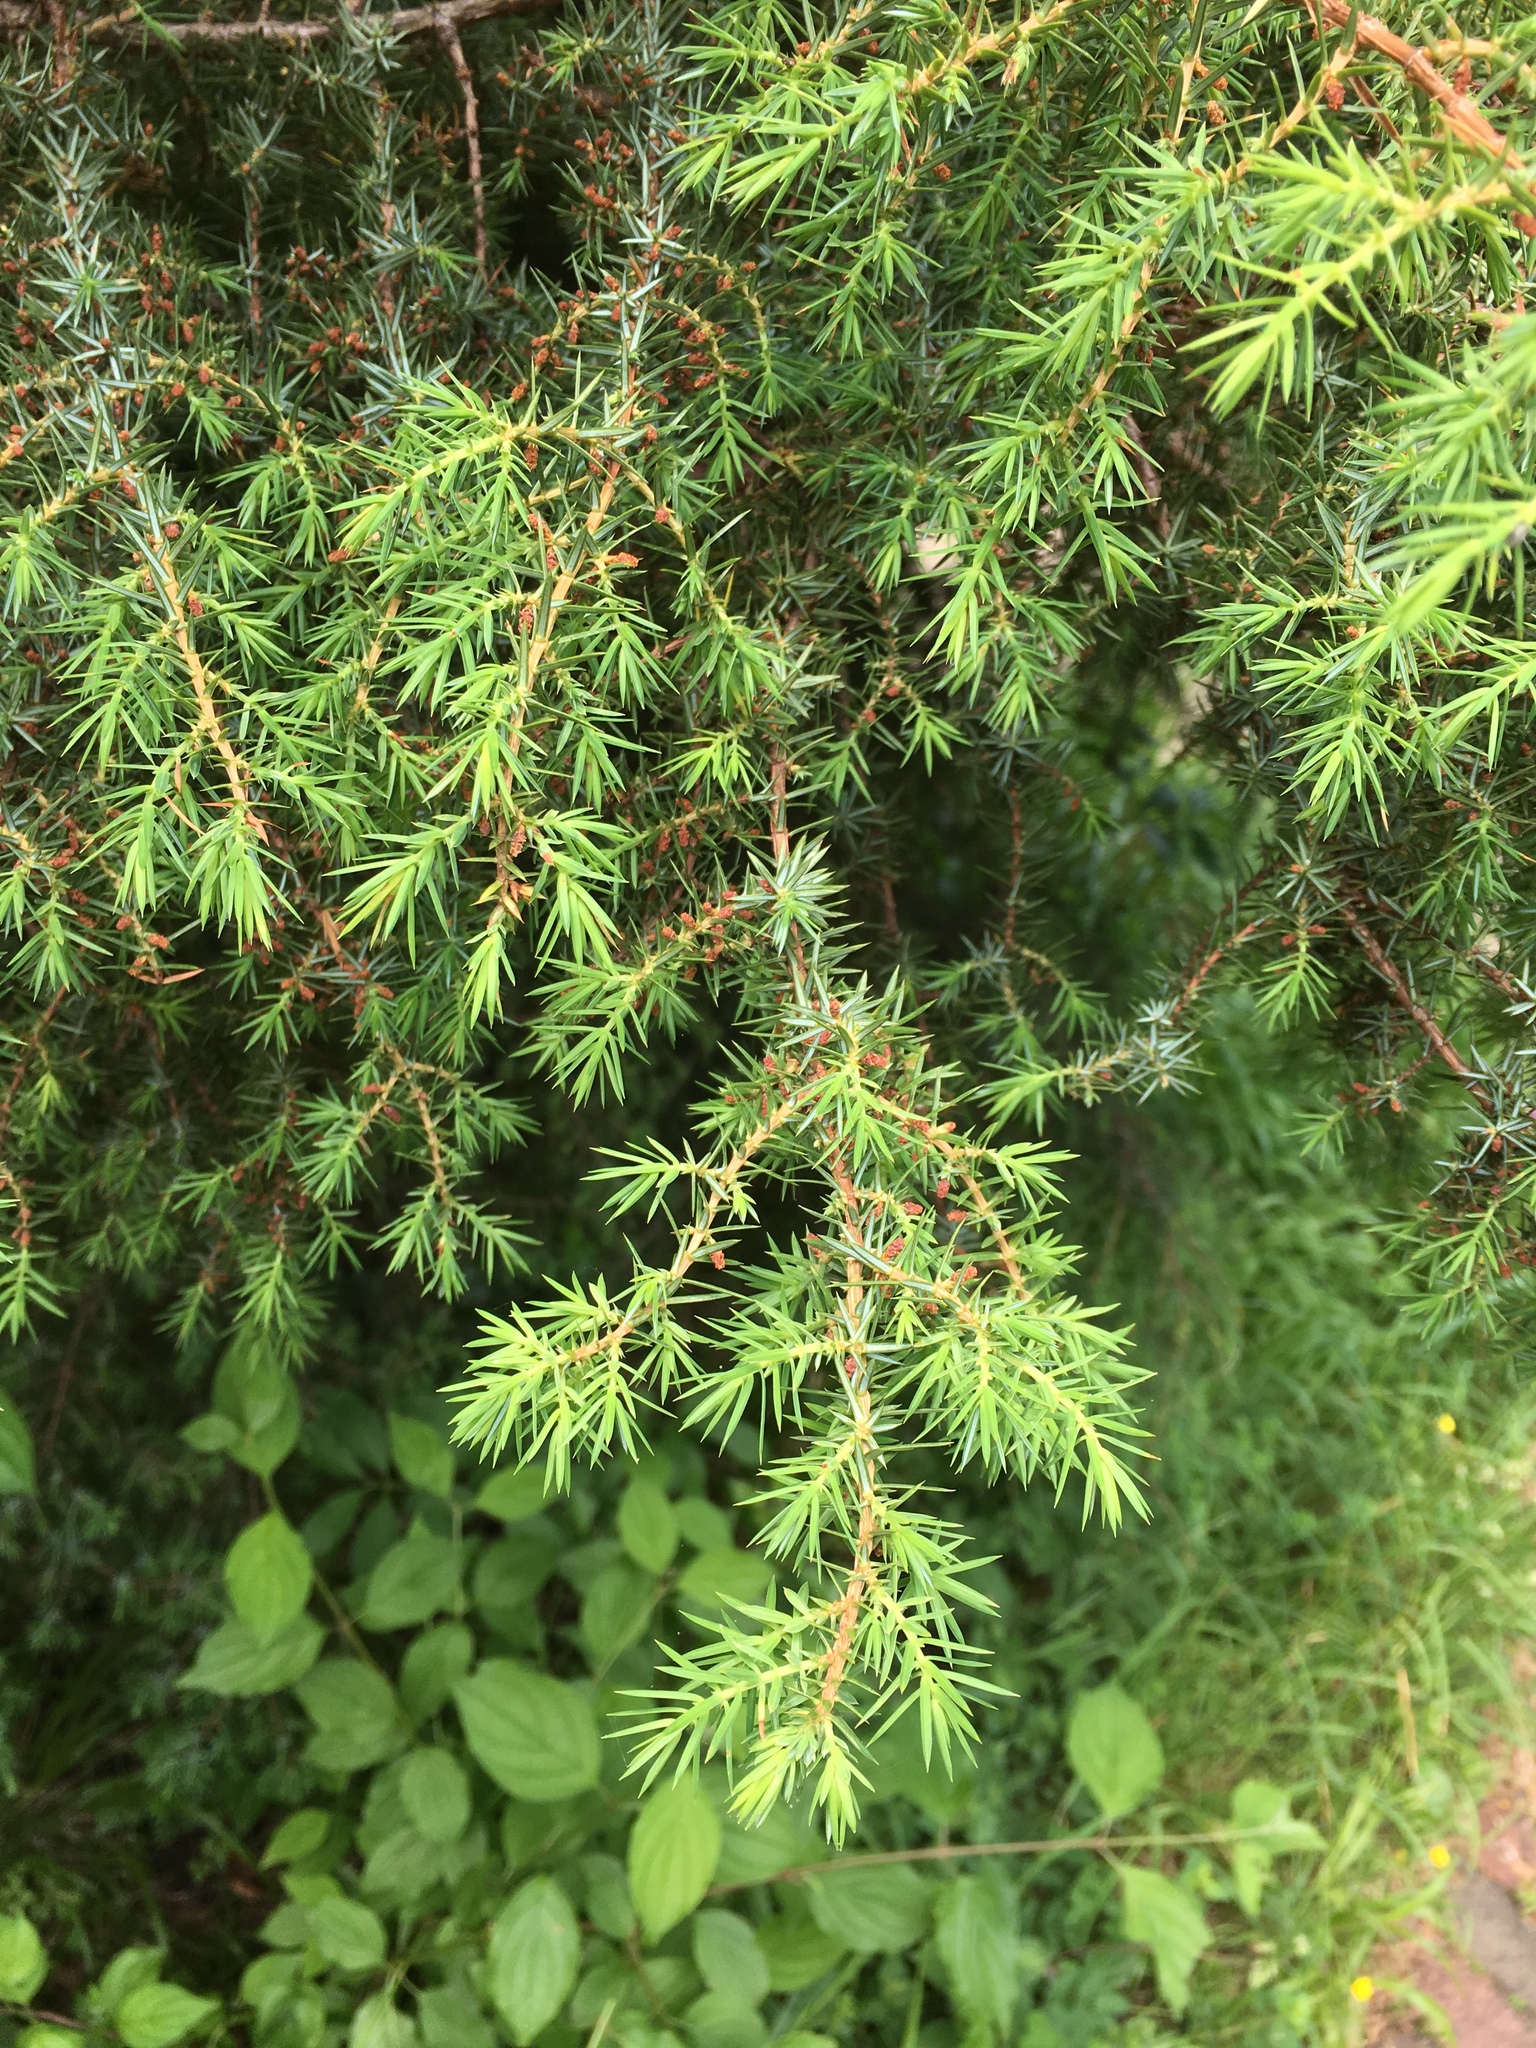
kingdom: Plantae
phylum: Tracheophyta
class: Pinopsida
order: Pinales
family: Cupressaceae
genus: Juniperus
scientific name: Juniperus communis
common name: Common juniper
